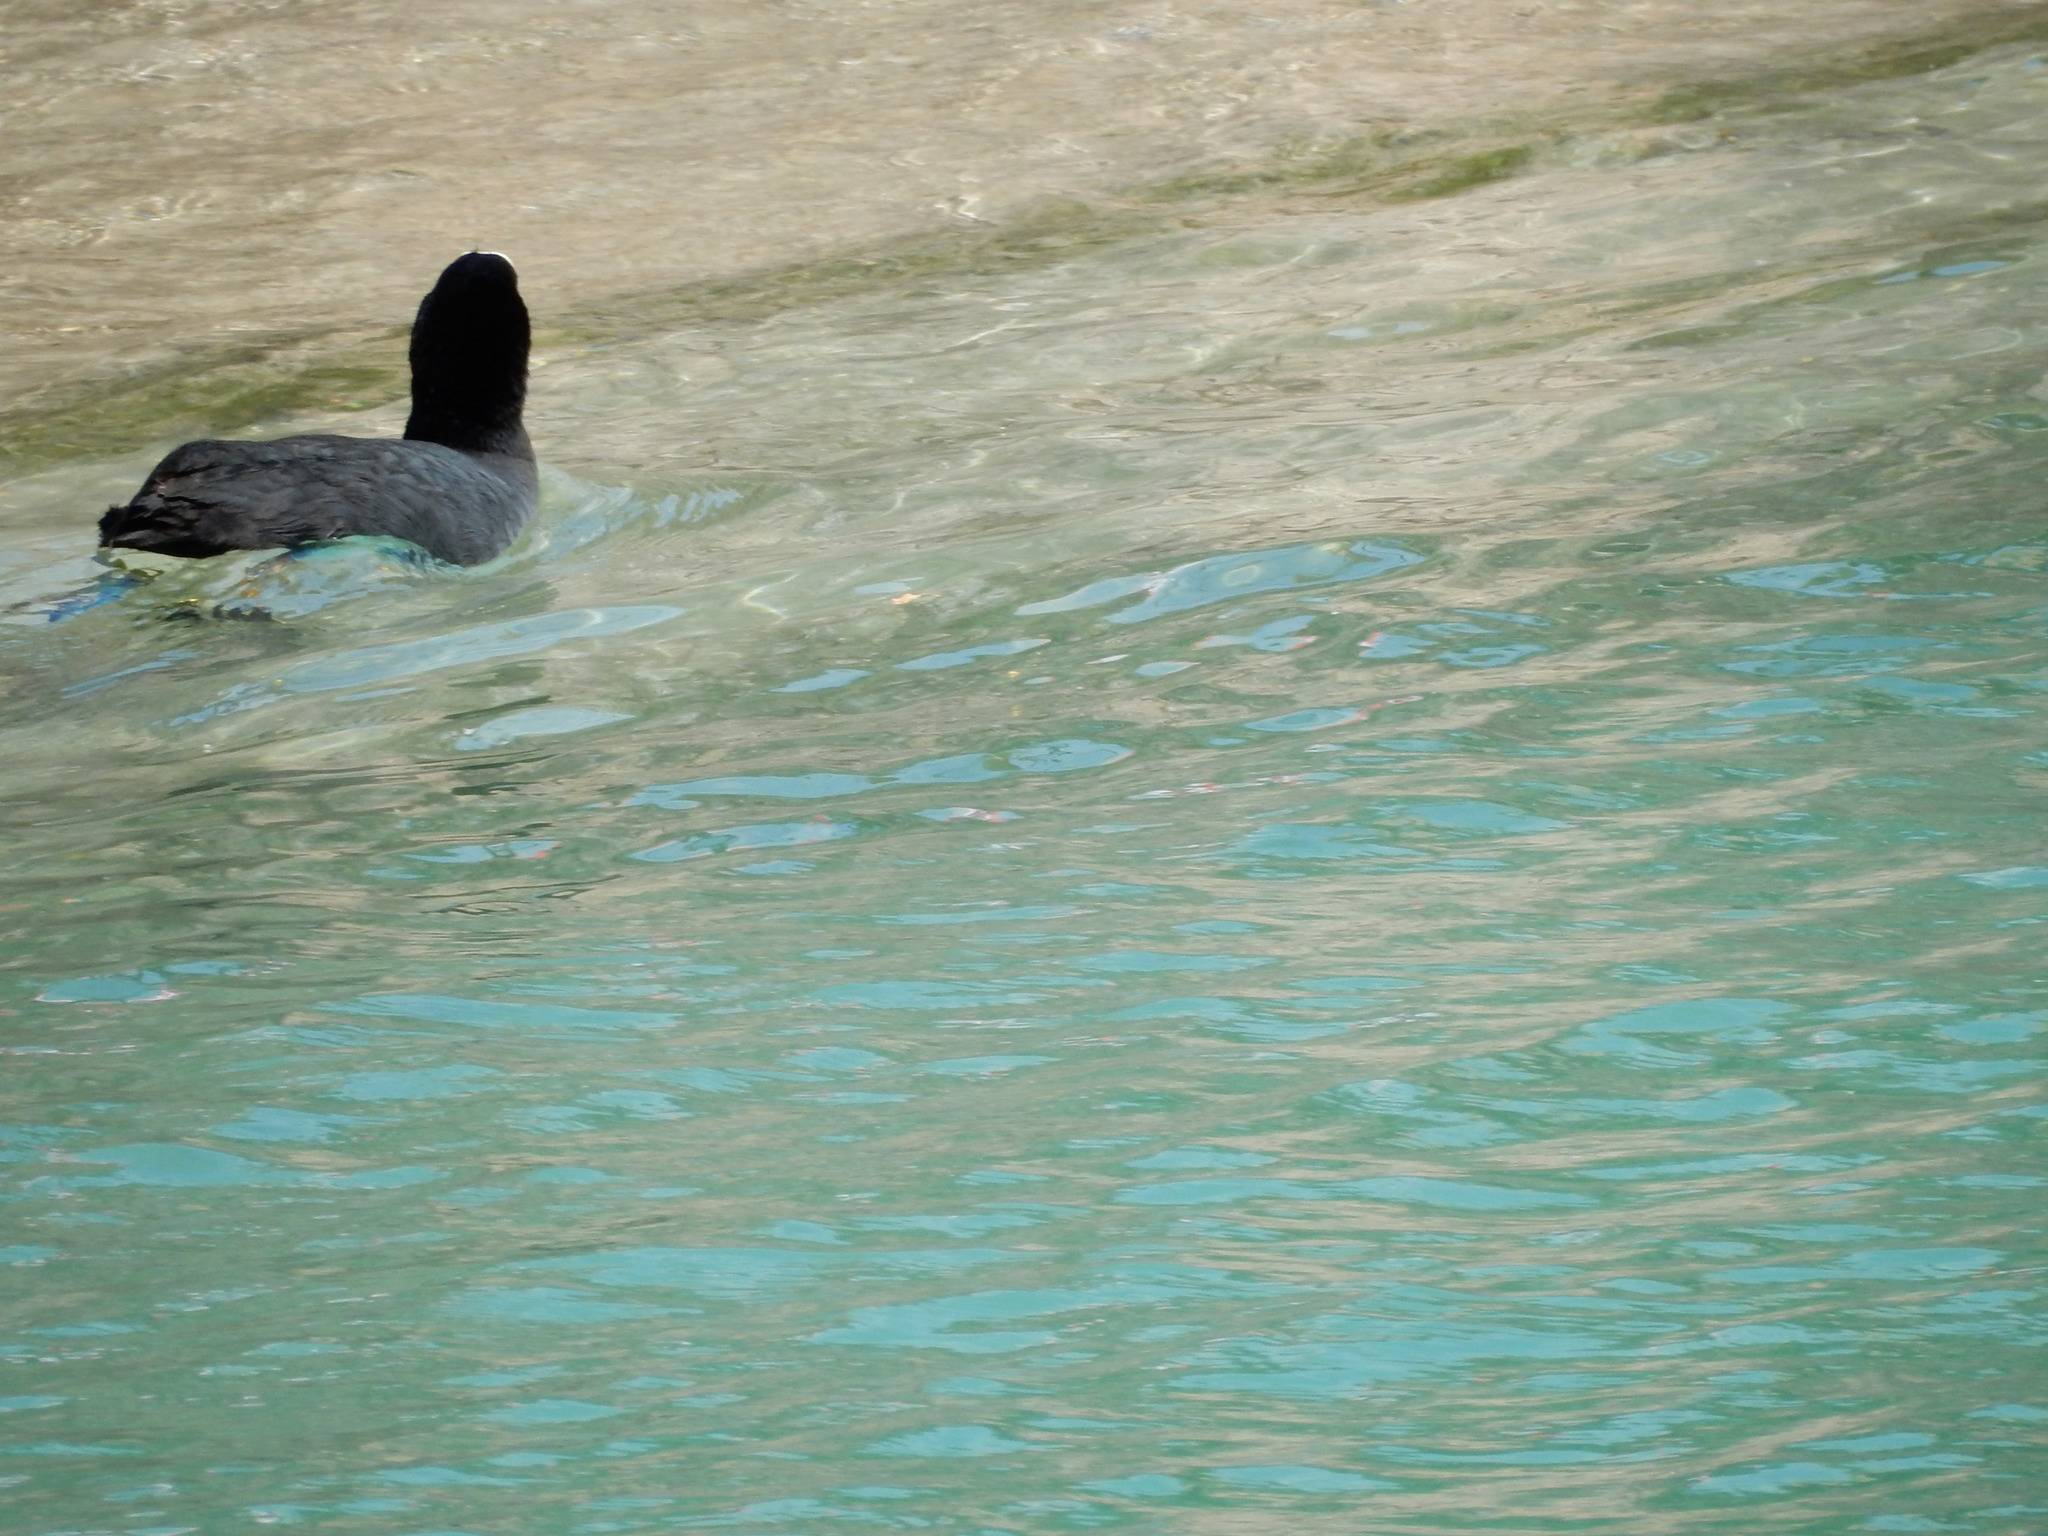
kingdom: Animalia
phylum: Chordata
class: Aves
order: Gruiformes
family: Rallidae
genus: Fulica
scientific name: Fulica atra
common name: Eurasian coot
